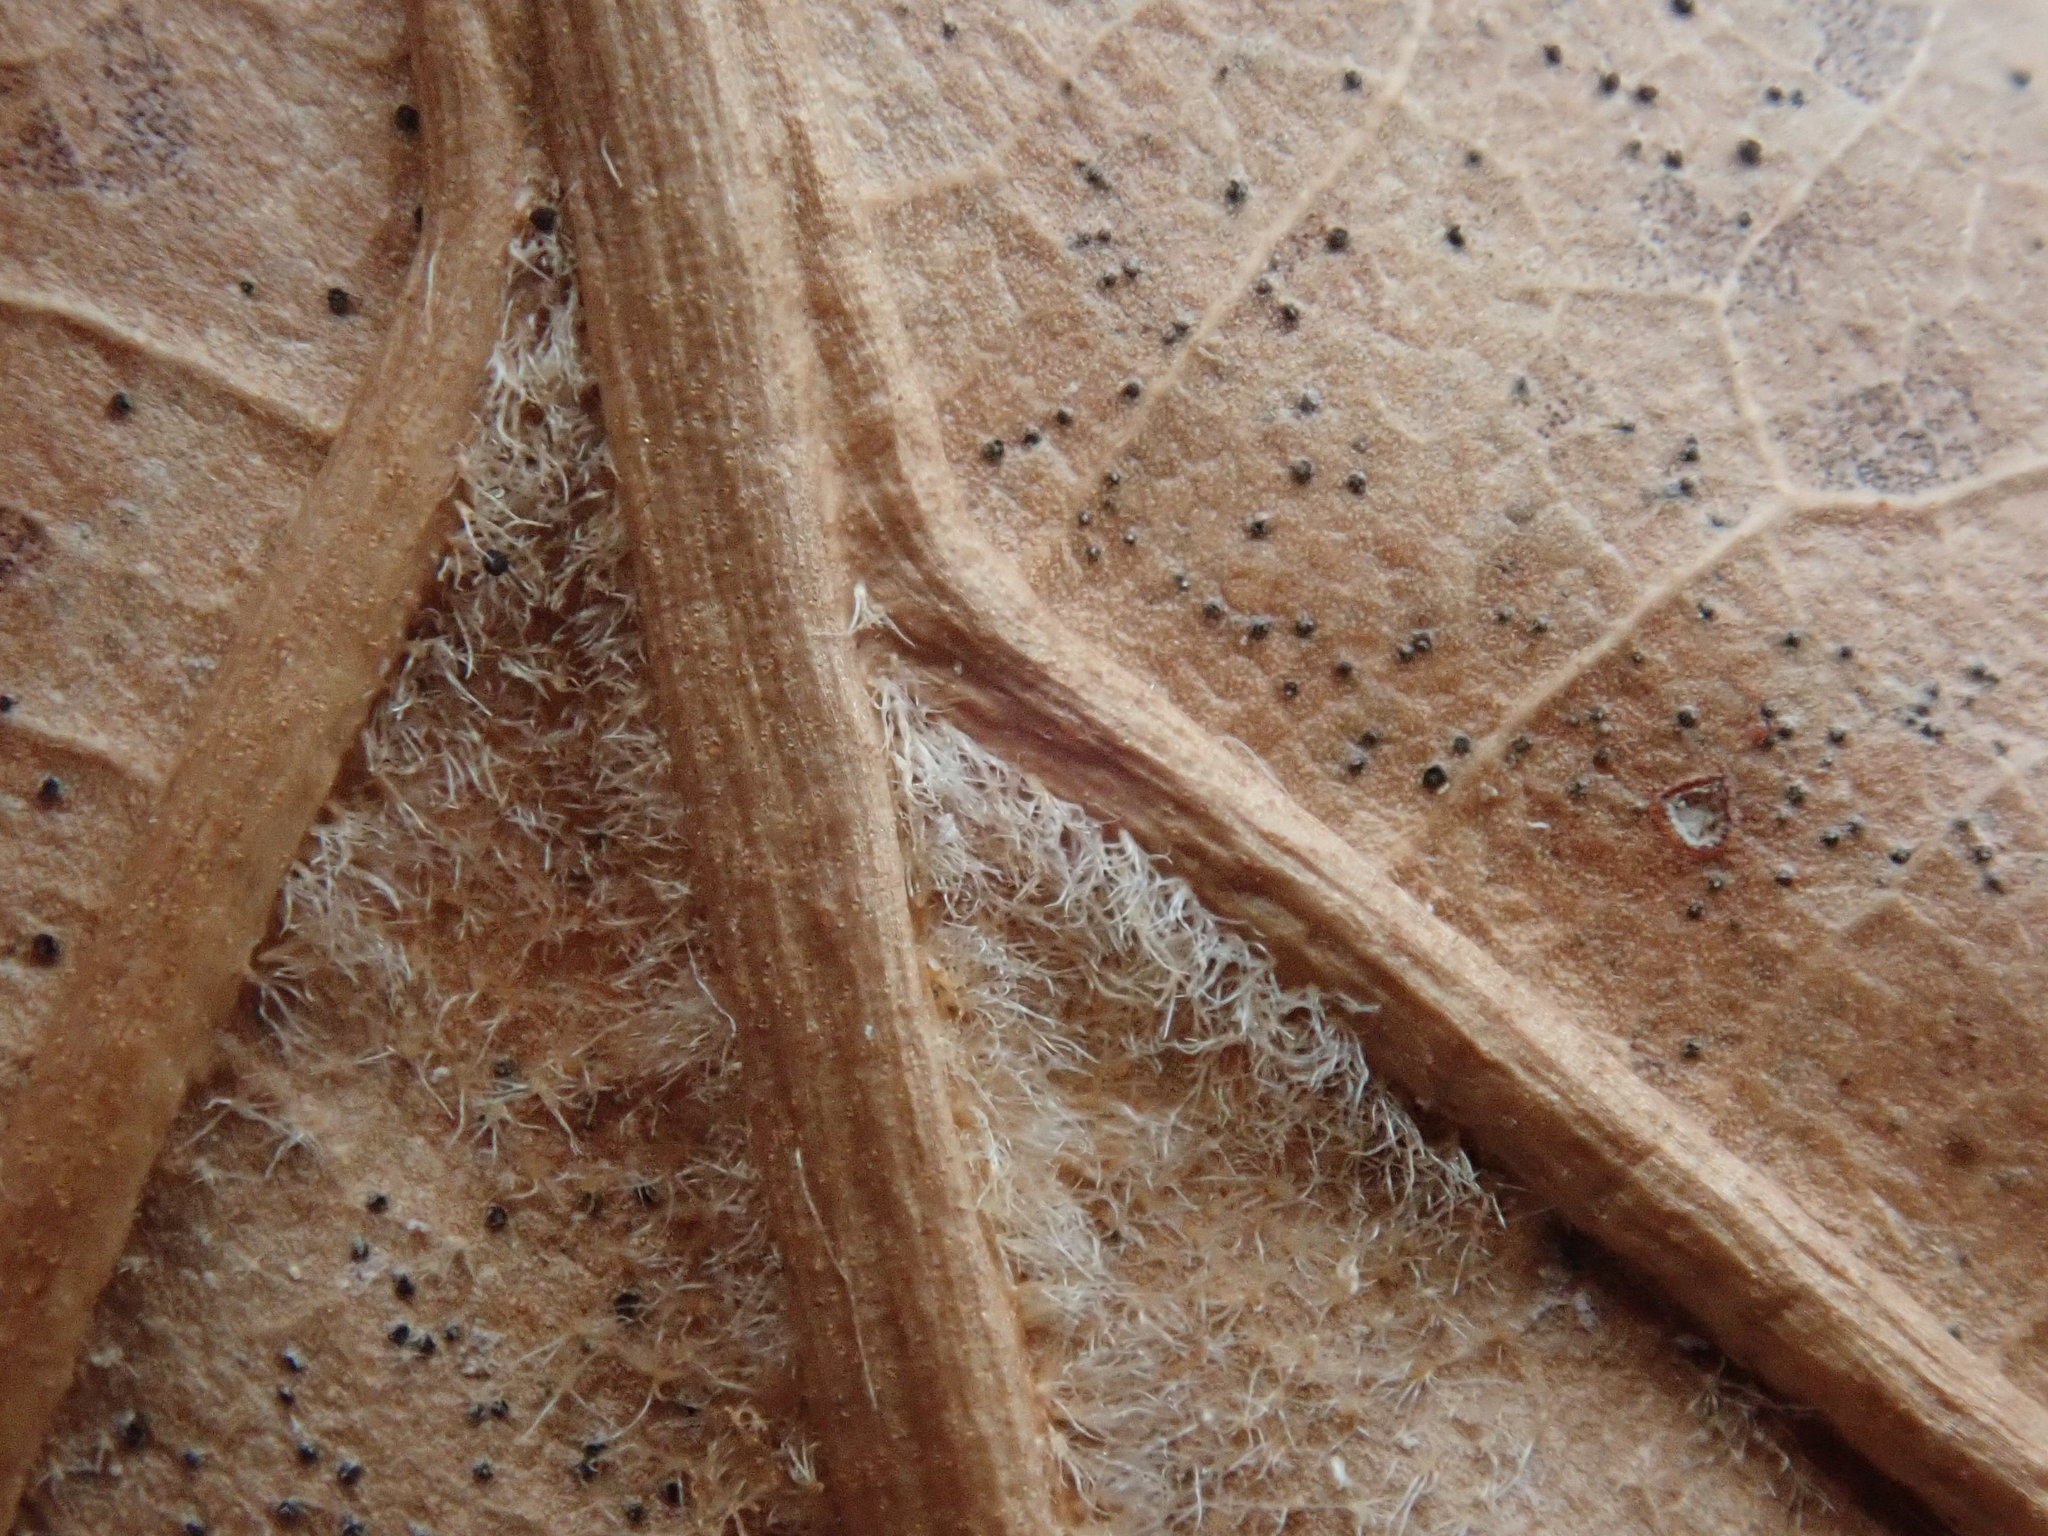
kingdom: Plantae
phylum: Tracheophyta
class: Magnoliopsida
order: Fagales
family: Fagaceae
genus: Quercus
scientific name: Quercus velutina
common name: Black oak
